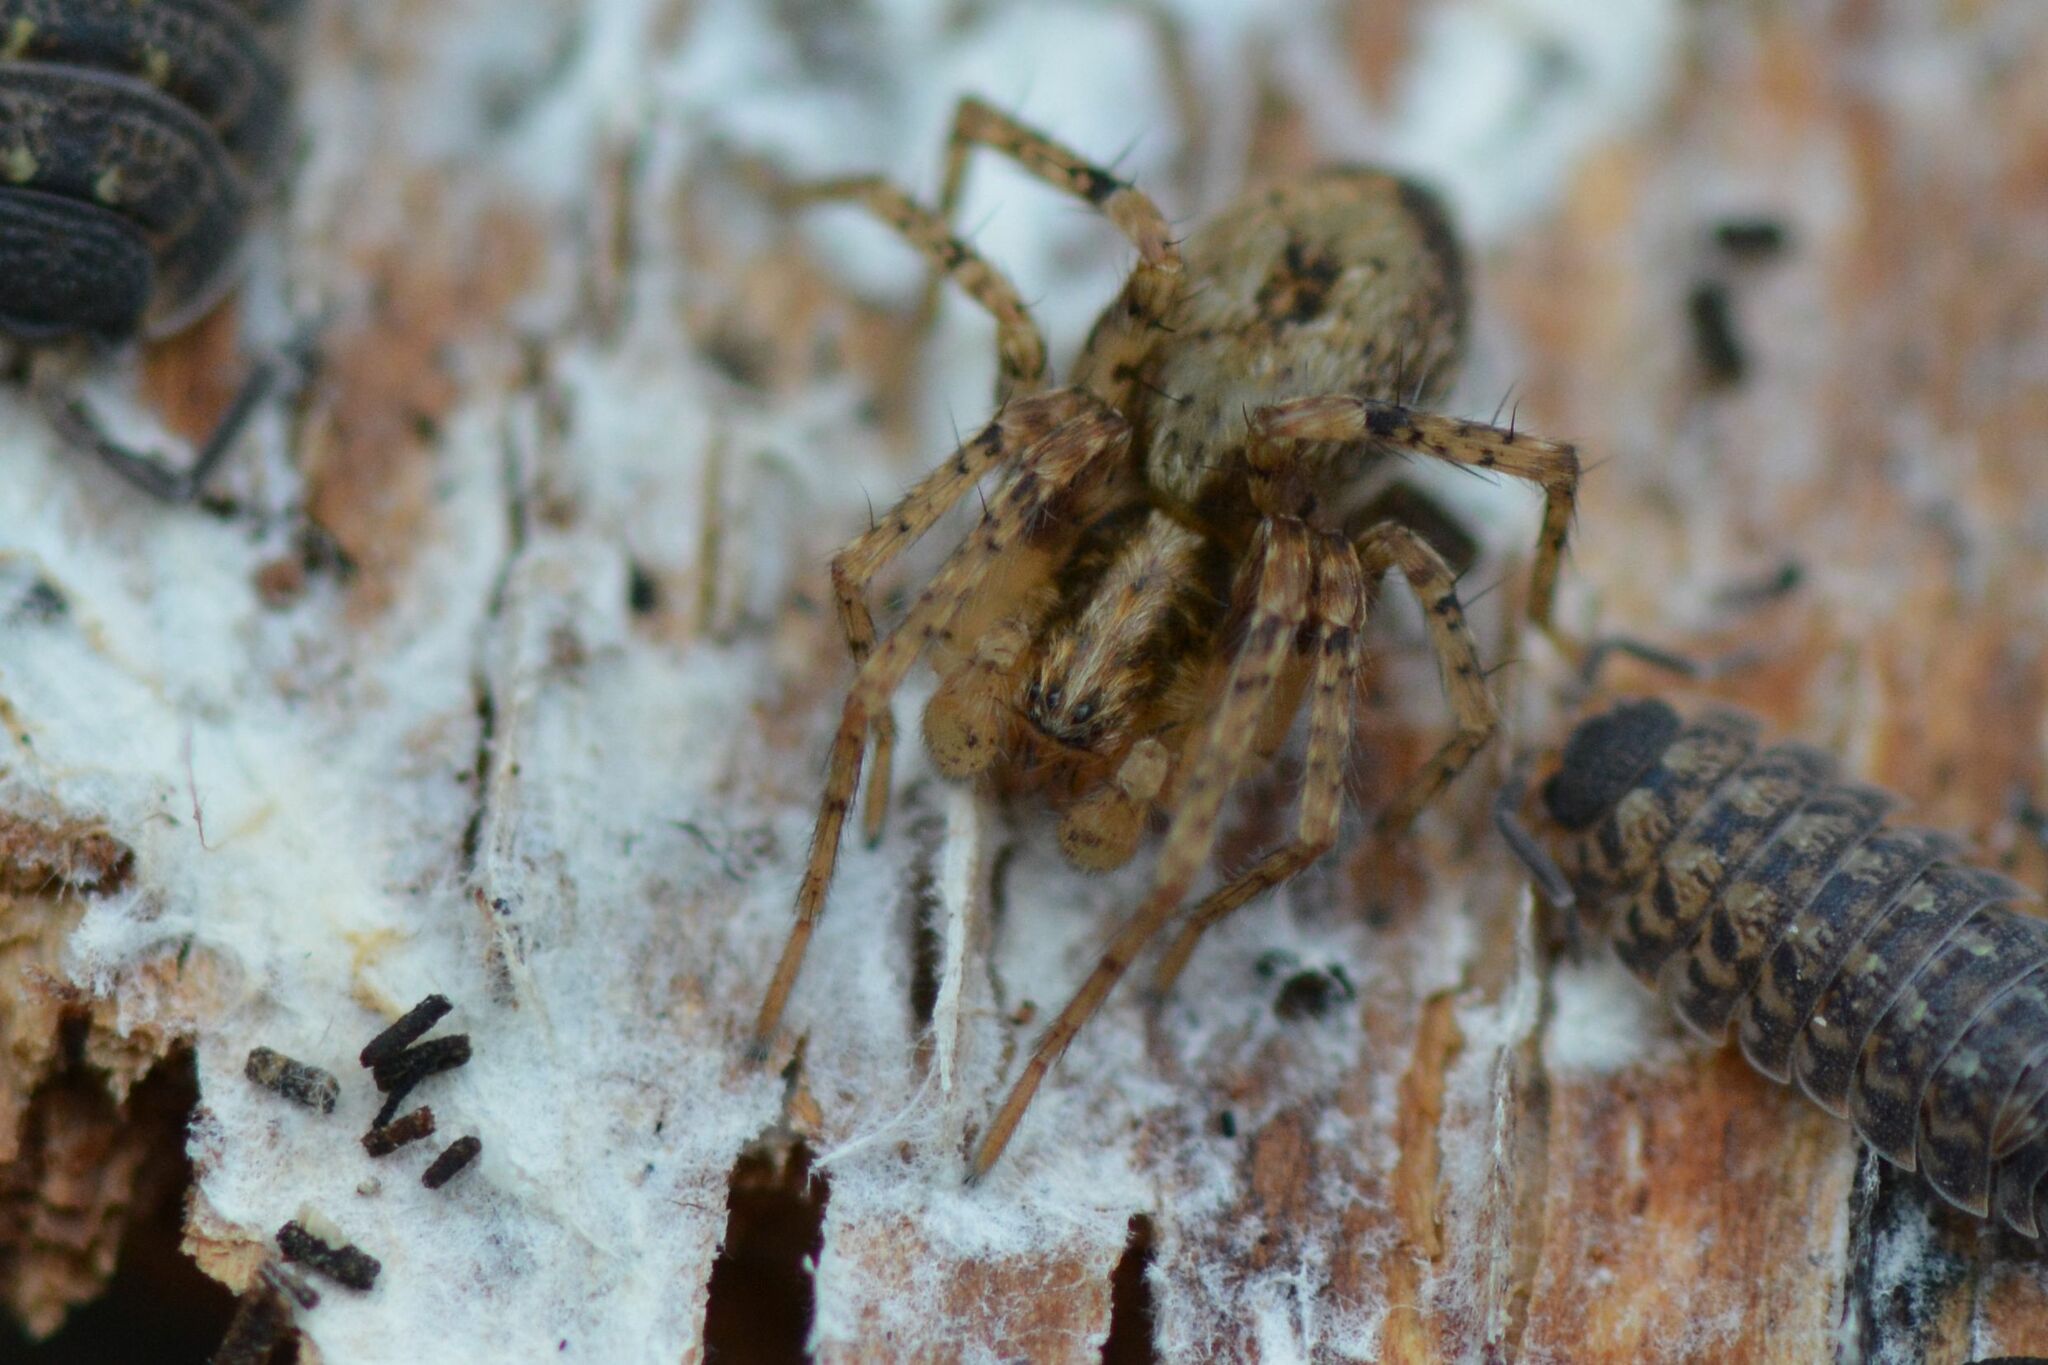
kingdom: Animalia
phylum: Arthropoda
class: Arachnida
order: Araneae
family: Anyphaenidae
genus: Anyphaena
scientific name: Anyphaena accentuata
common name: Buzzing spider
